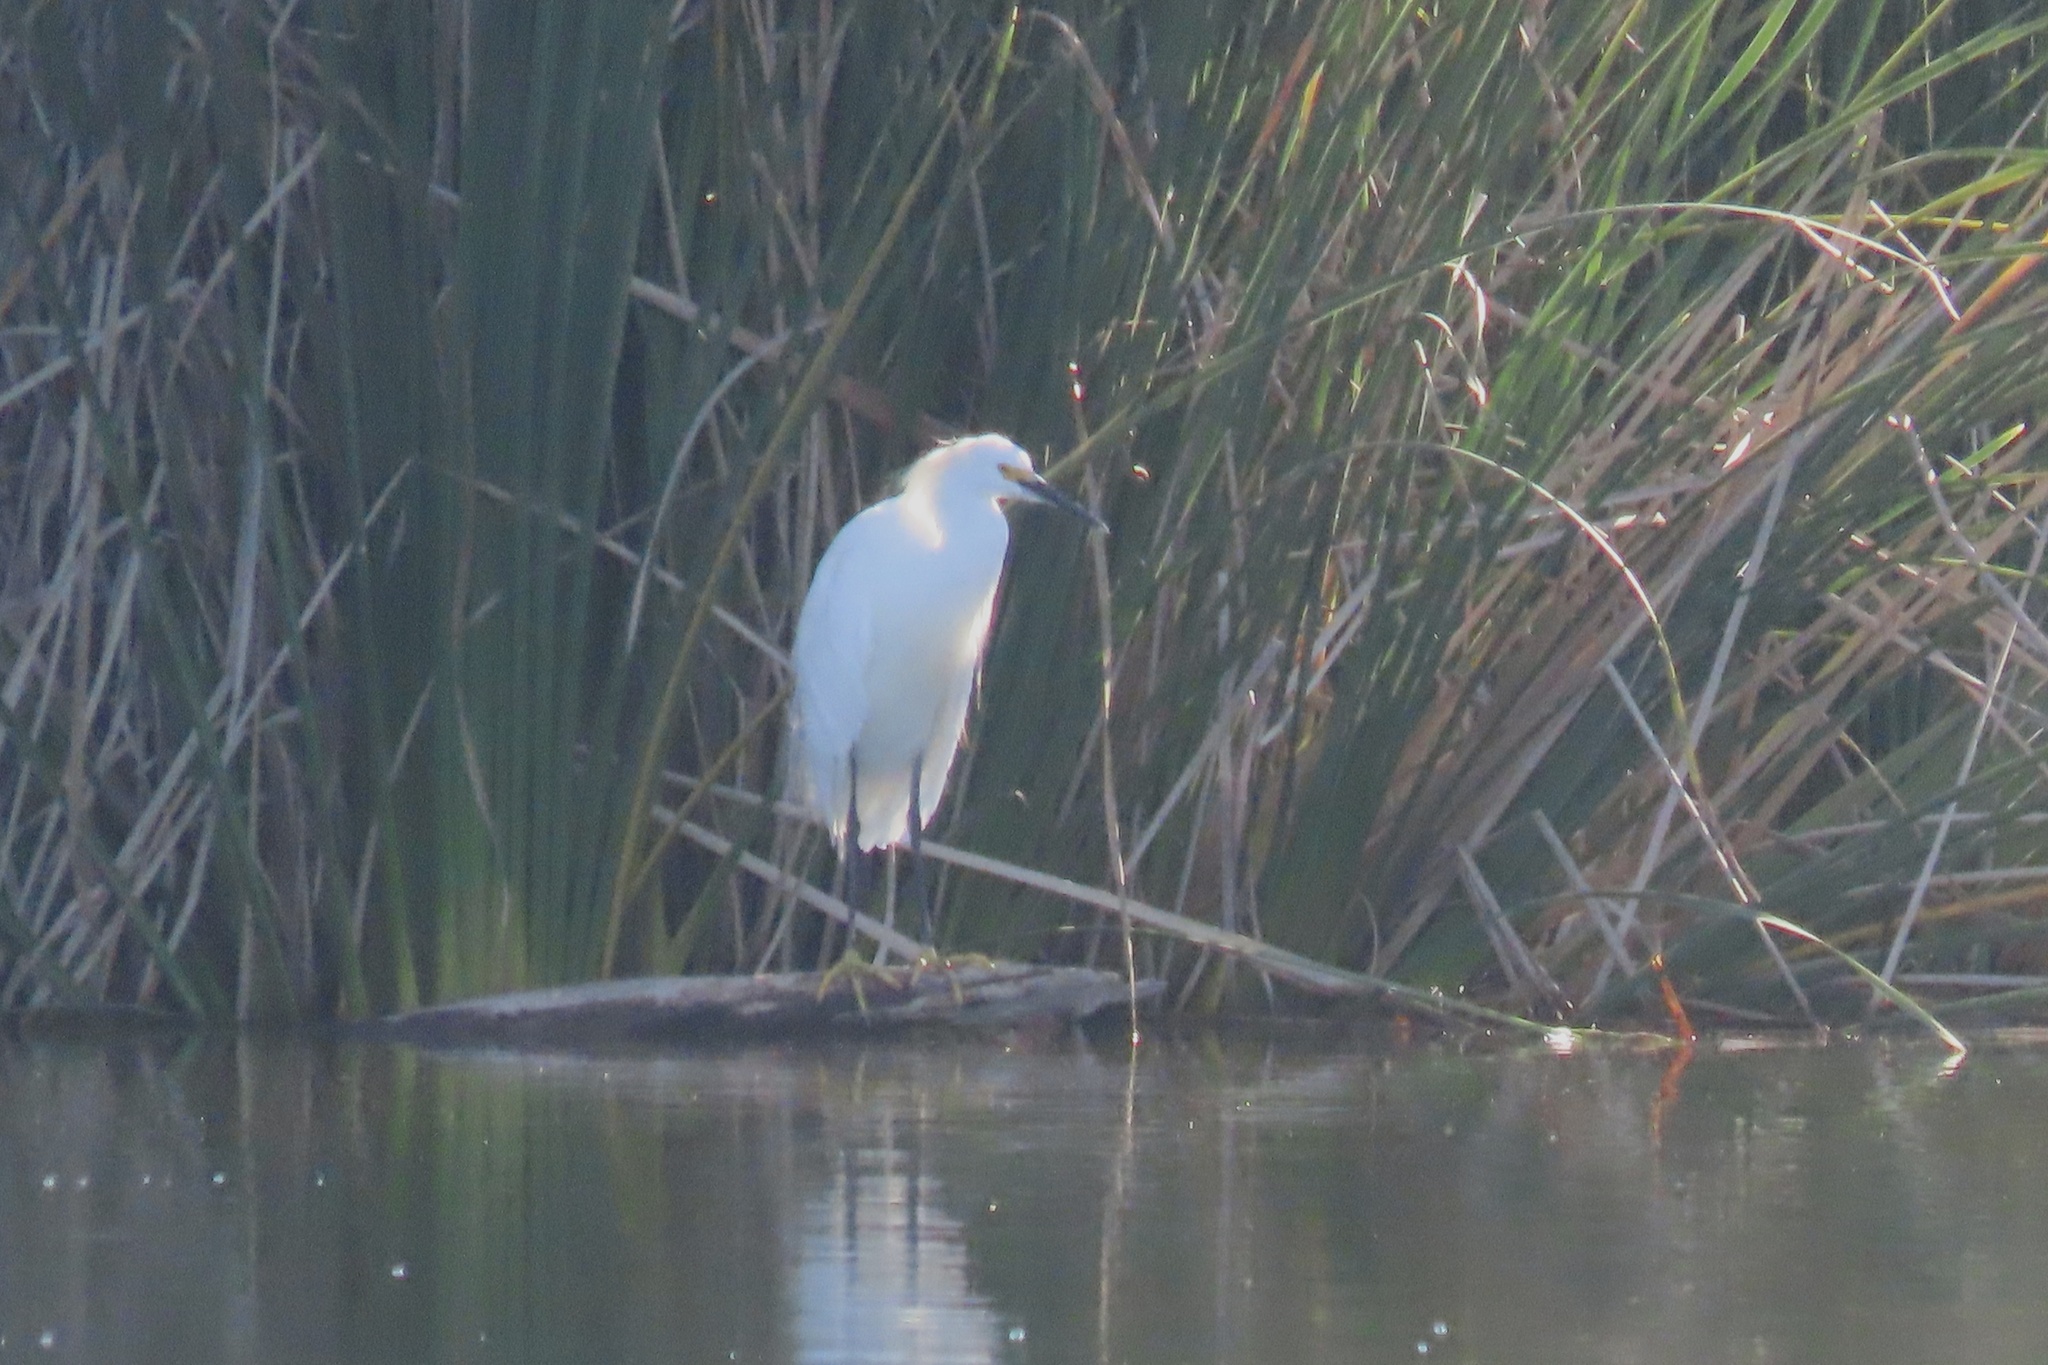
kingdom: Animalia
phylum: Chordata
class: Aves
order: Pelecaniformes
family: Ardeidae
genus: Egretta
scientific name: Egretta thula
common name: Snowy egret
